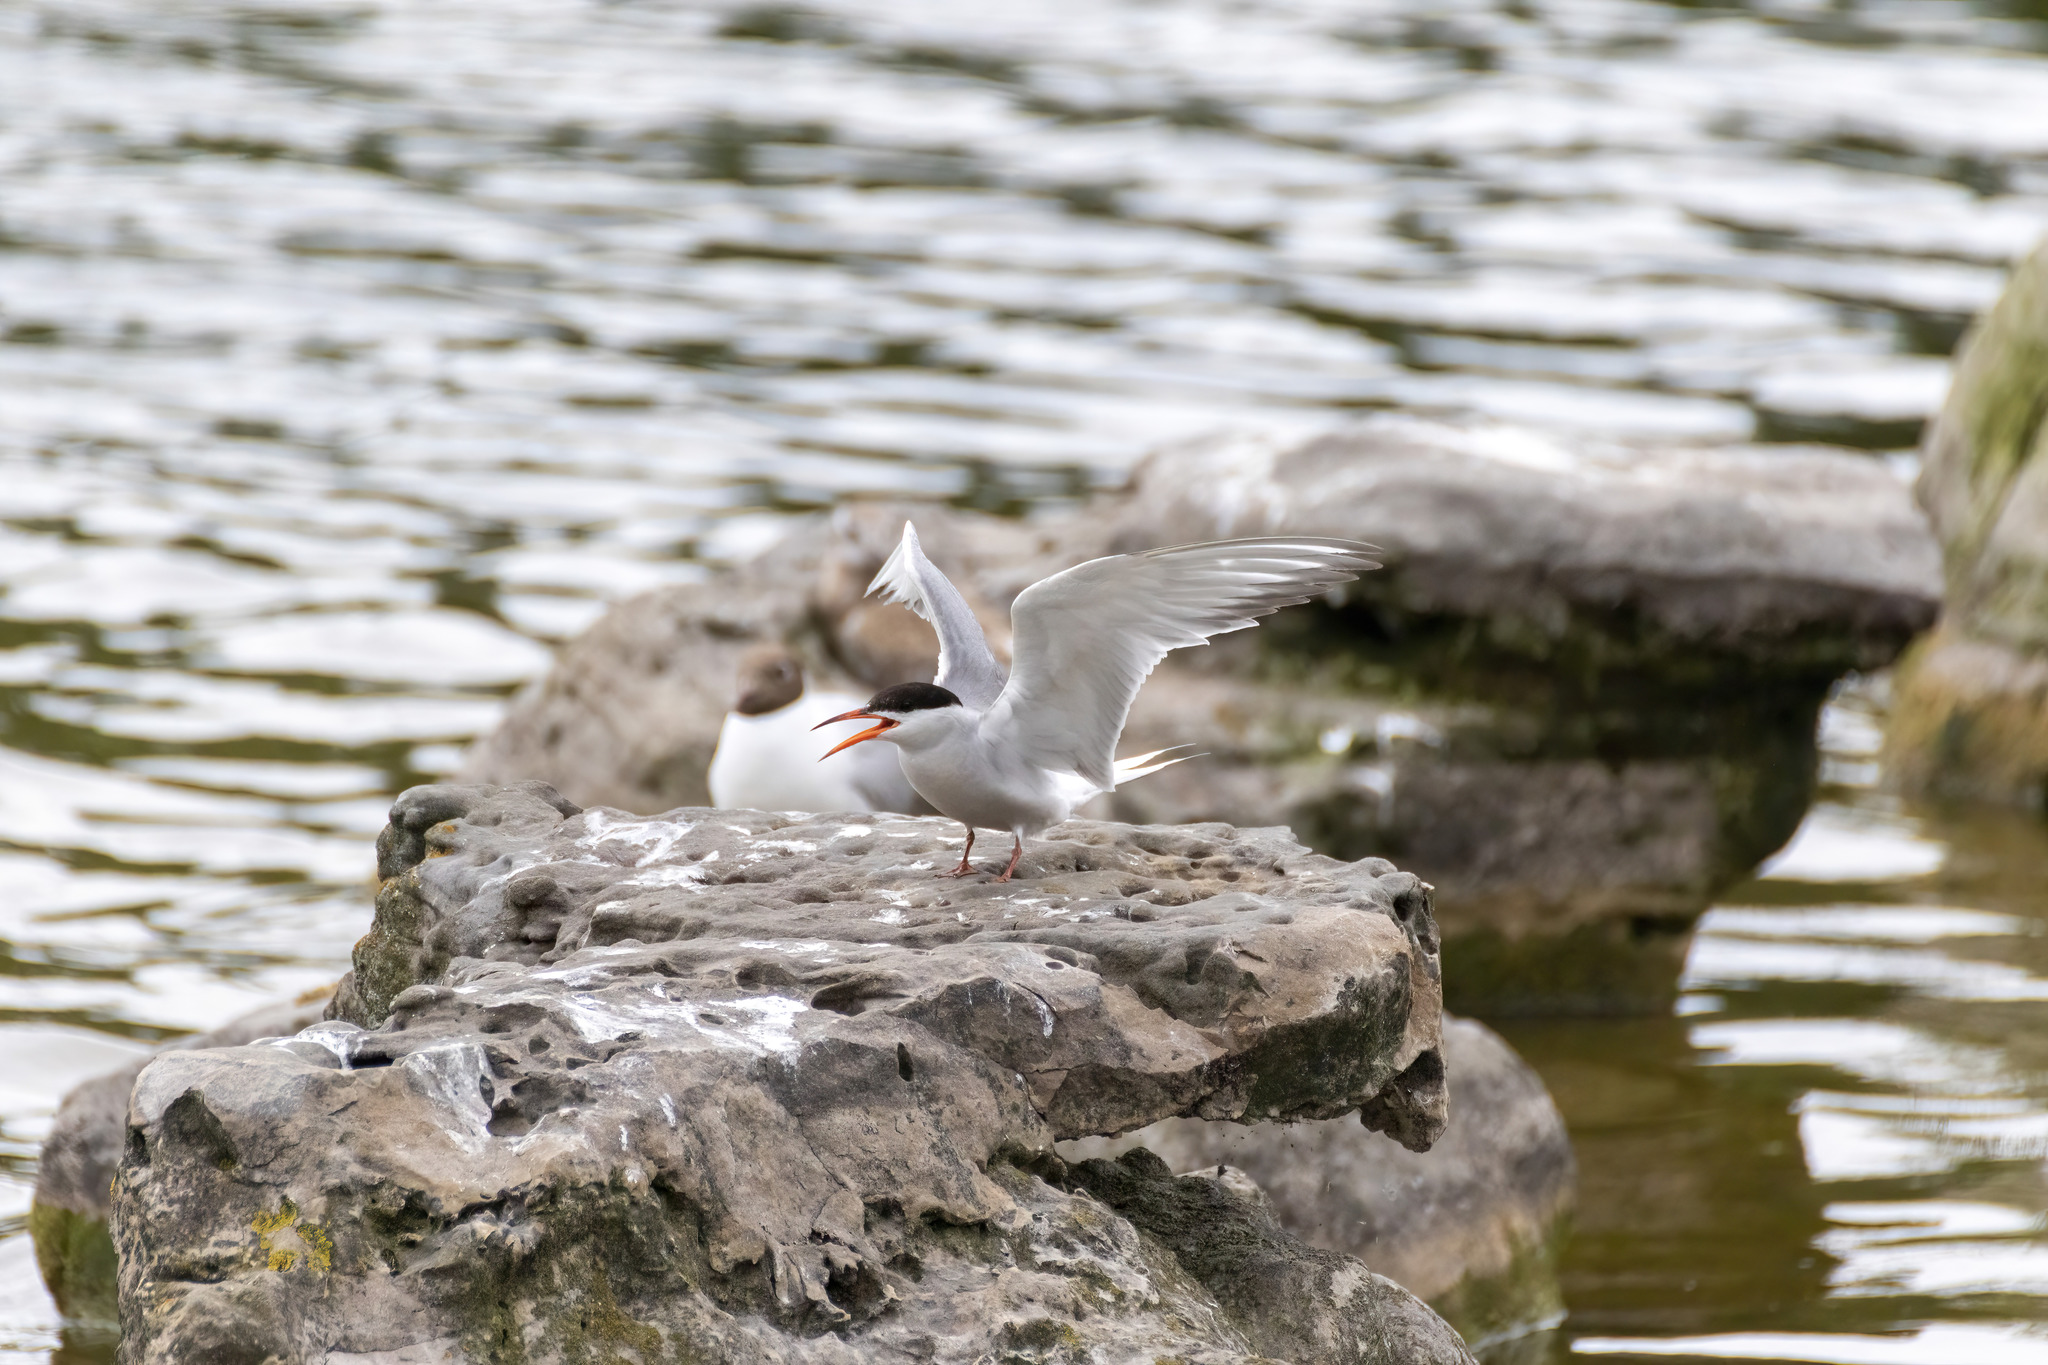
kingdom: Animalia
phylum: Chordata
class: Aves
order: Charadriiformes
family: Laridae
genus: Sterna
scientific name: Sterna hirundo
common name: Common tern
